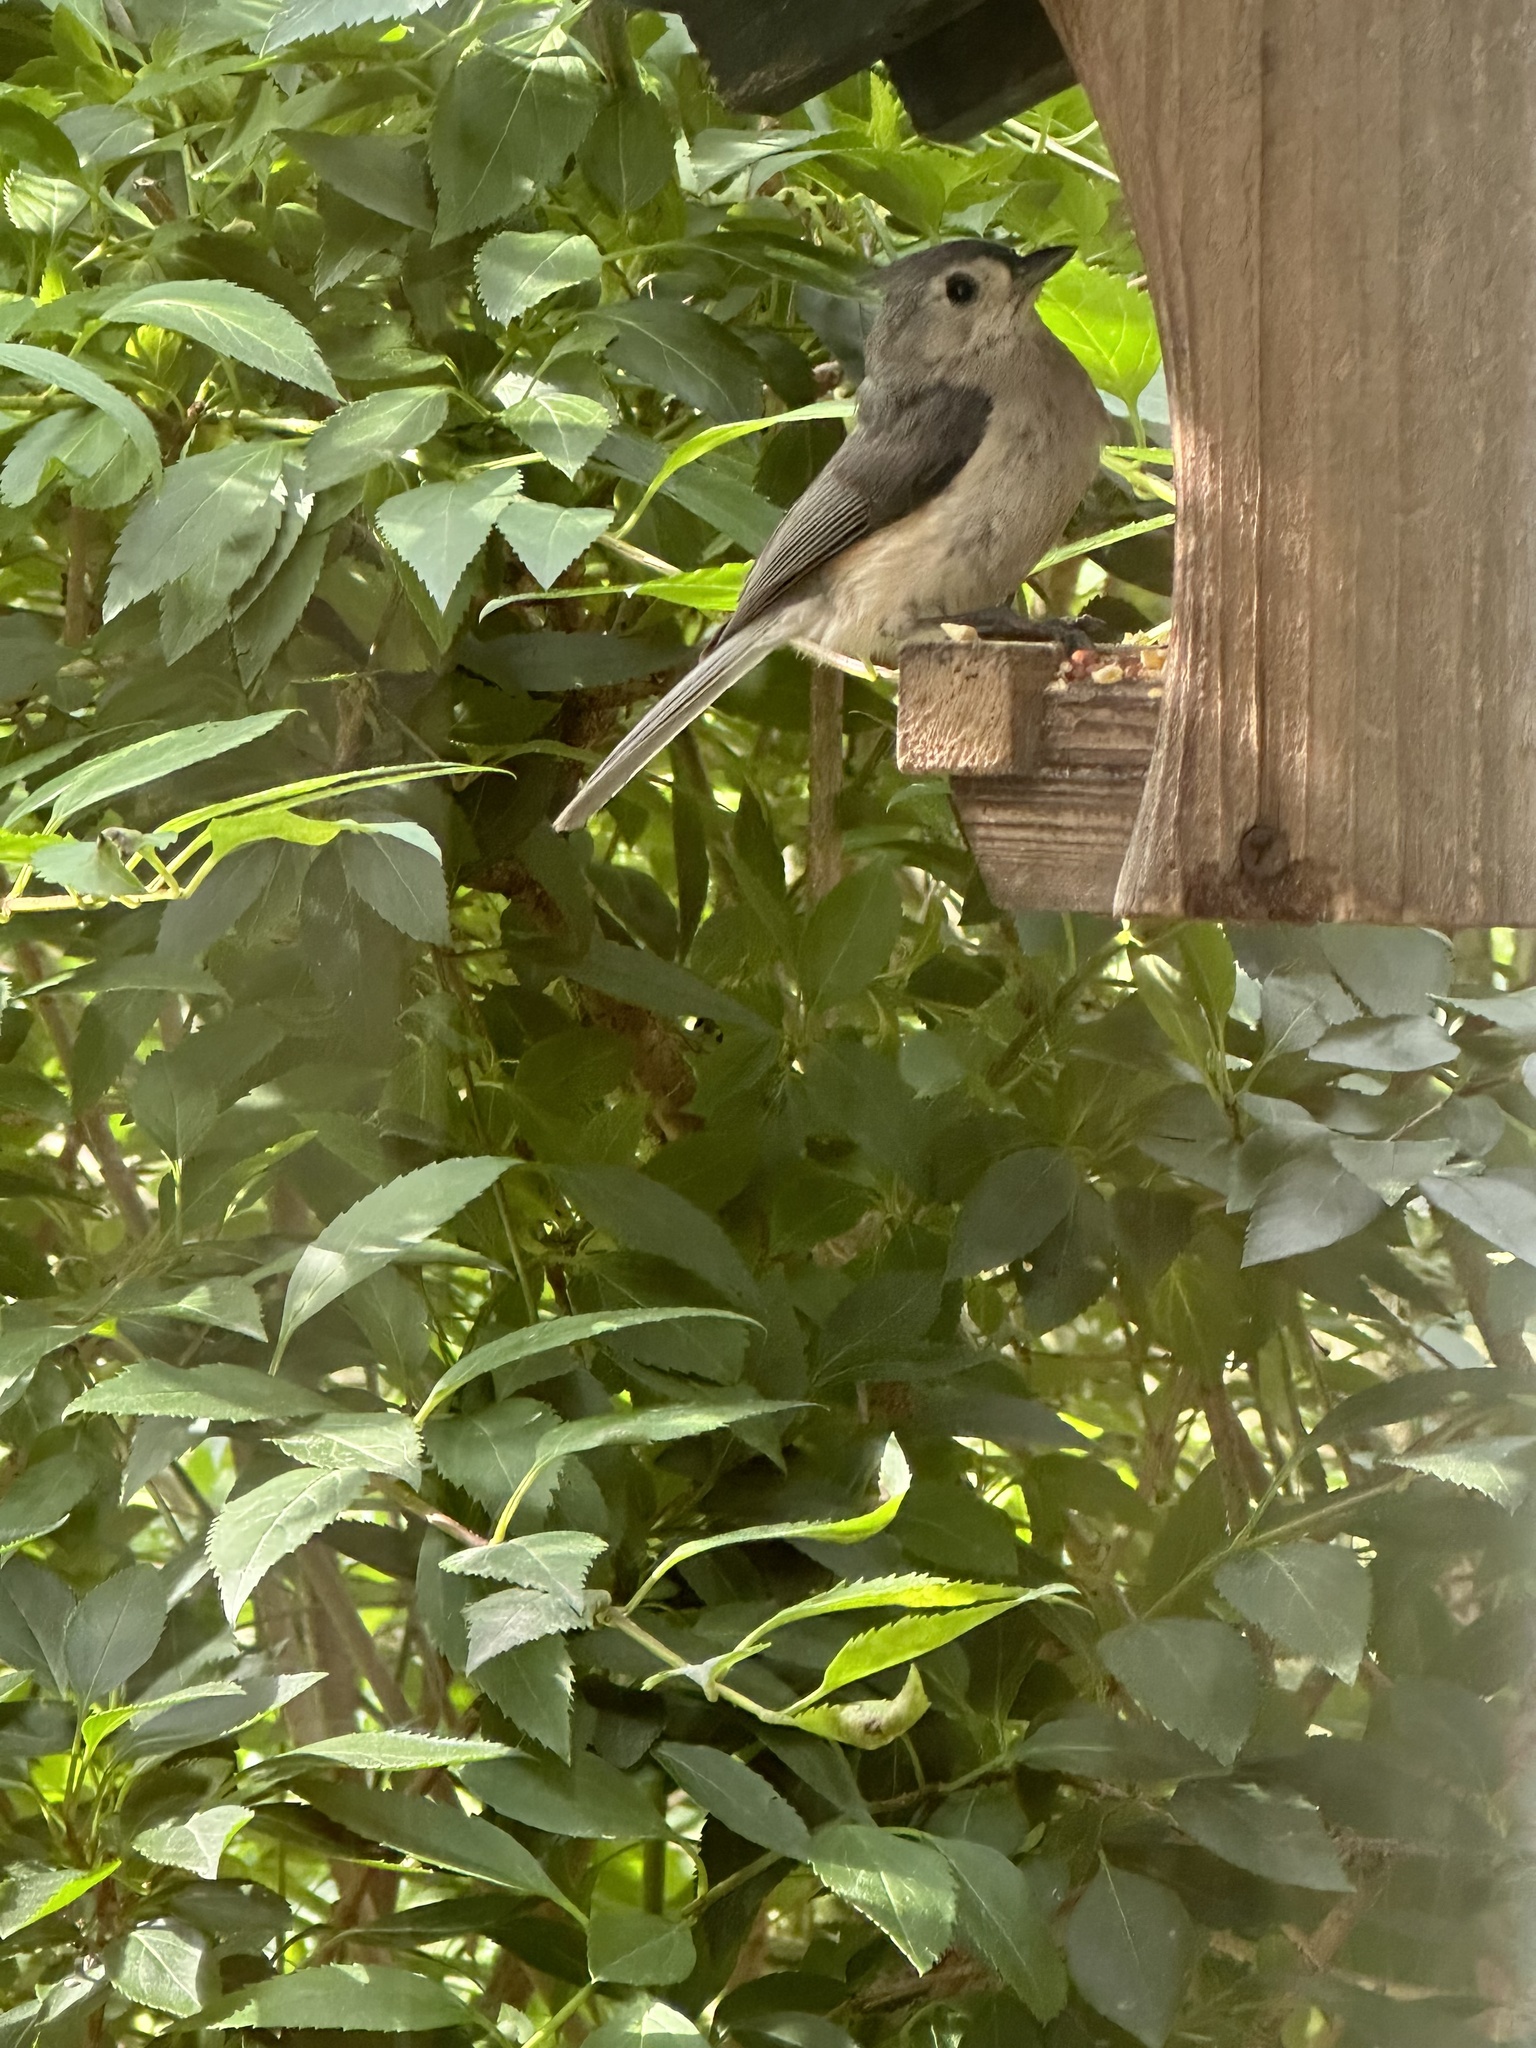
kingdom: Animalia
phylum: Chordata
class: Aves
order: Passeriformes
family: Paridae
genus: Baeolophus
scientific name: Baeolophus bicolor
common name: Tufted titmouse
